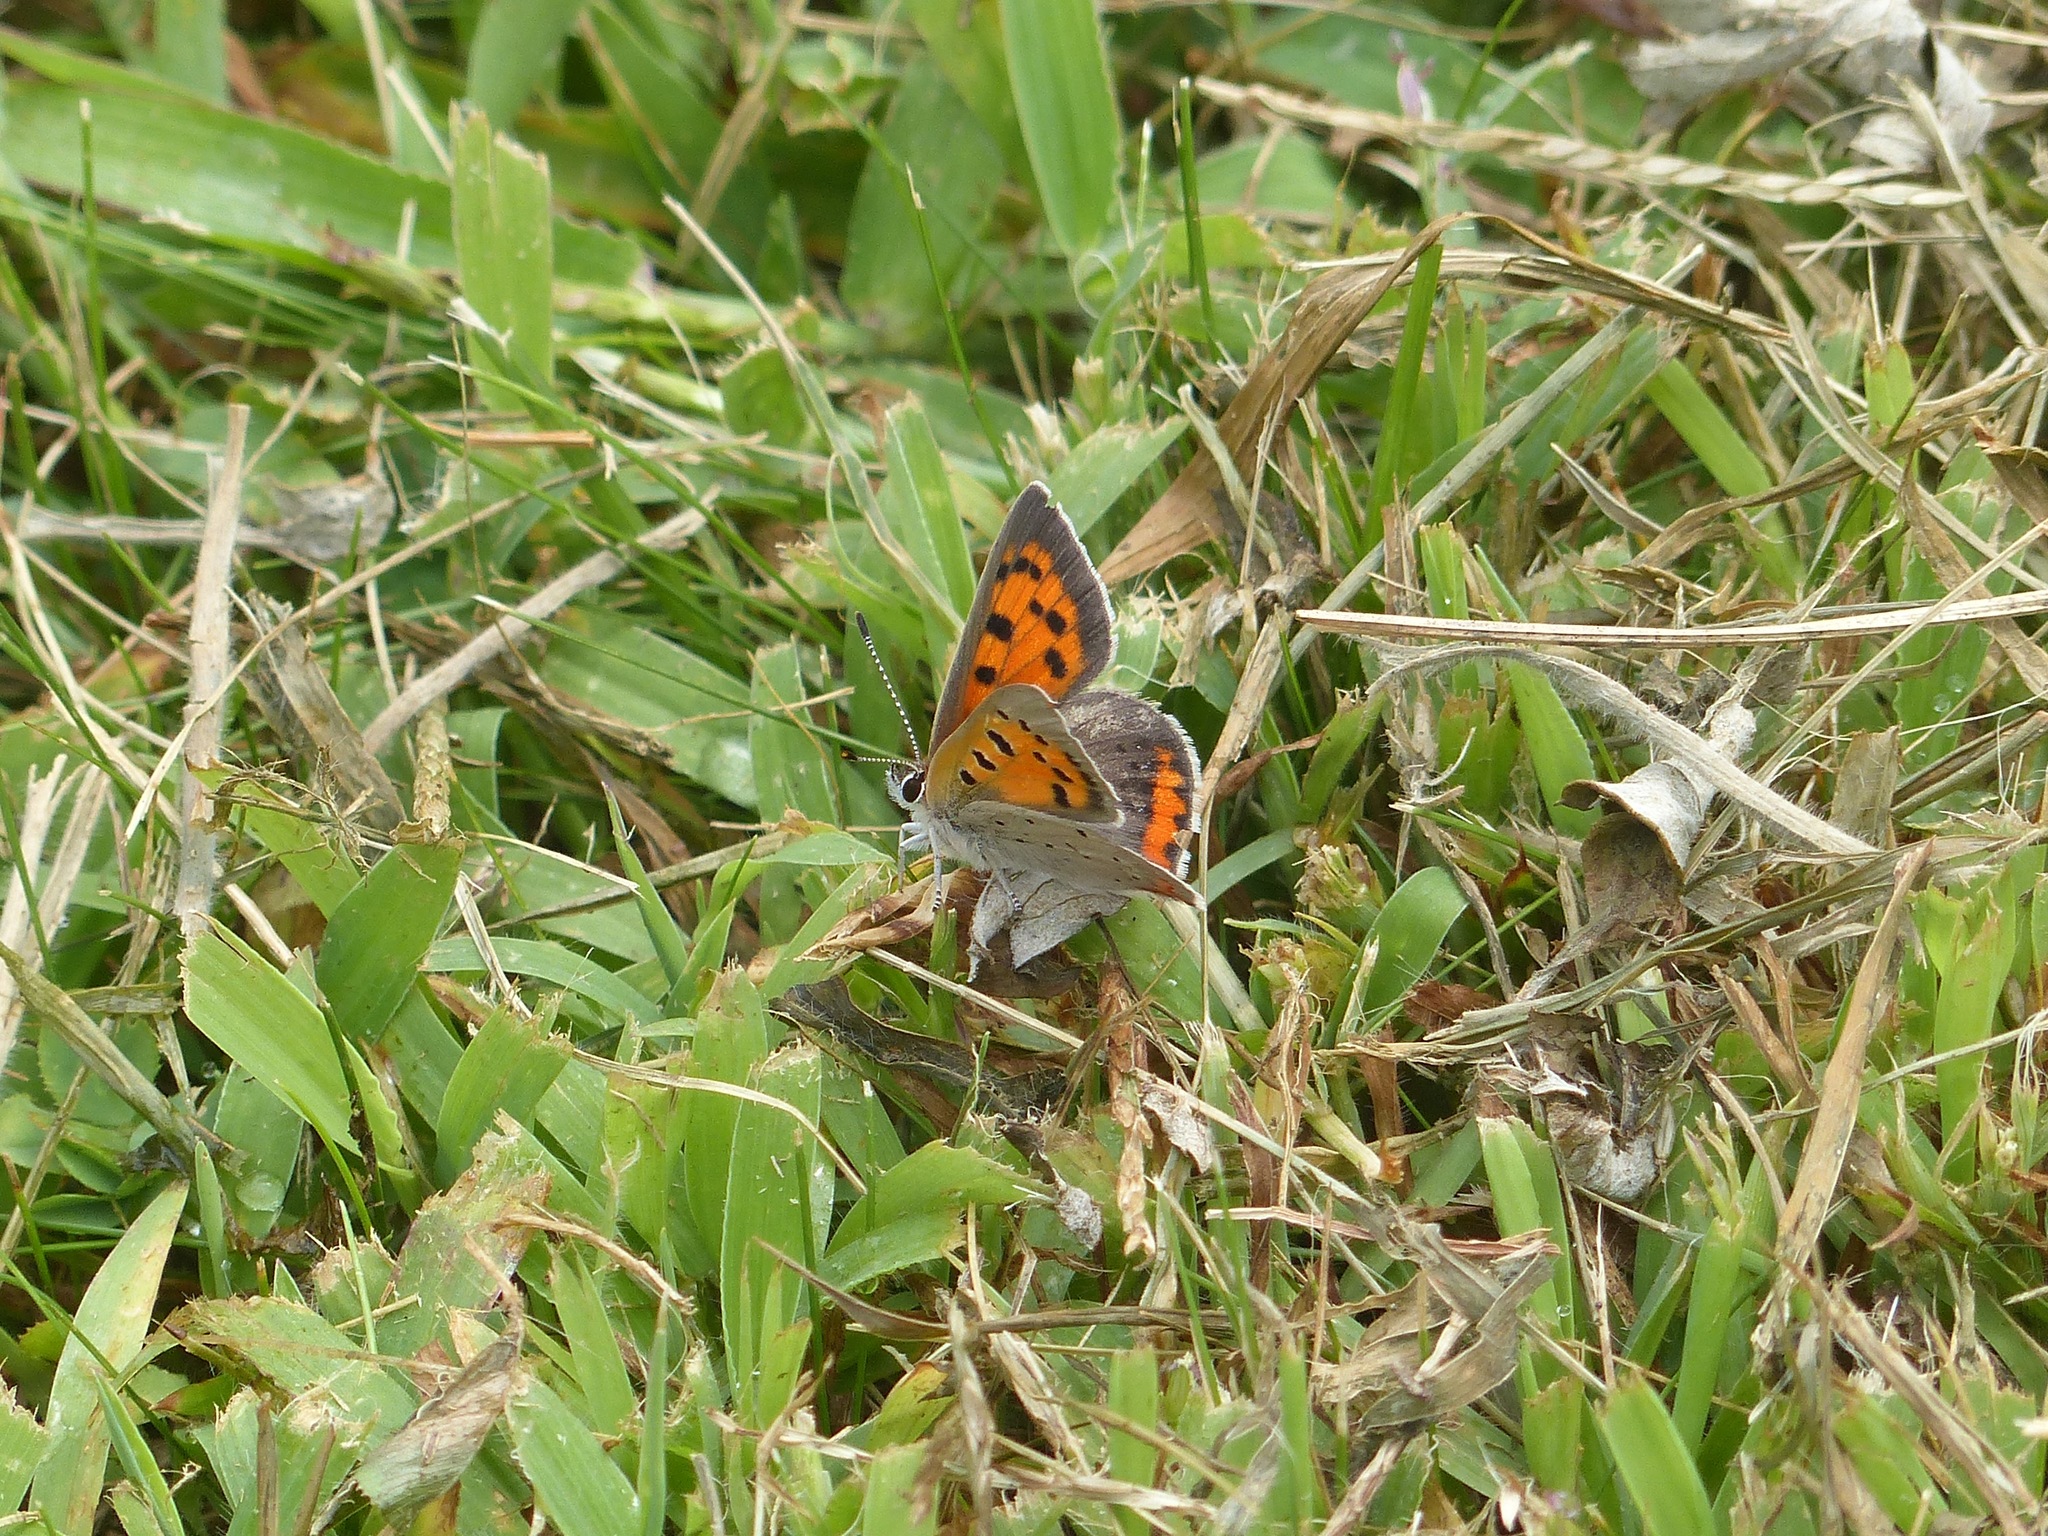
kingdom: Animalia
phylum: Arthropoda
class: Insecta
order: Lepidoptera
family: Lycaenidae
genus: Lycaena
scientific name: Lycaena hypophlaeas
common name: American copper
